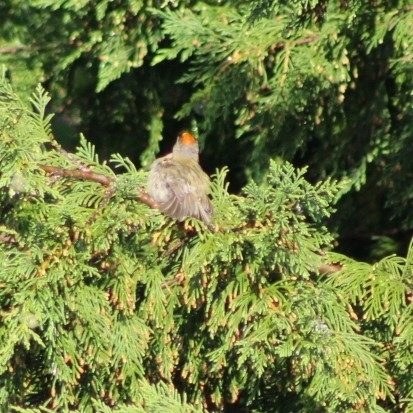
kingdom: Animalia
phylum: Chordata
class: Aves
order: Passeriformes
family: Regulidae
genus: Regulus
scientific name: Regulus regulus
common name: Goldcrest
